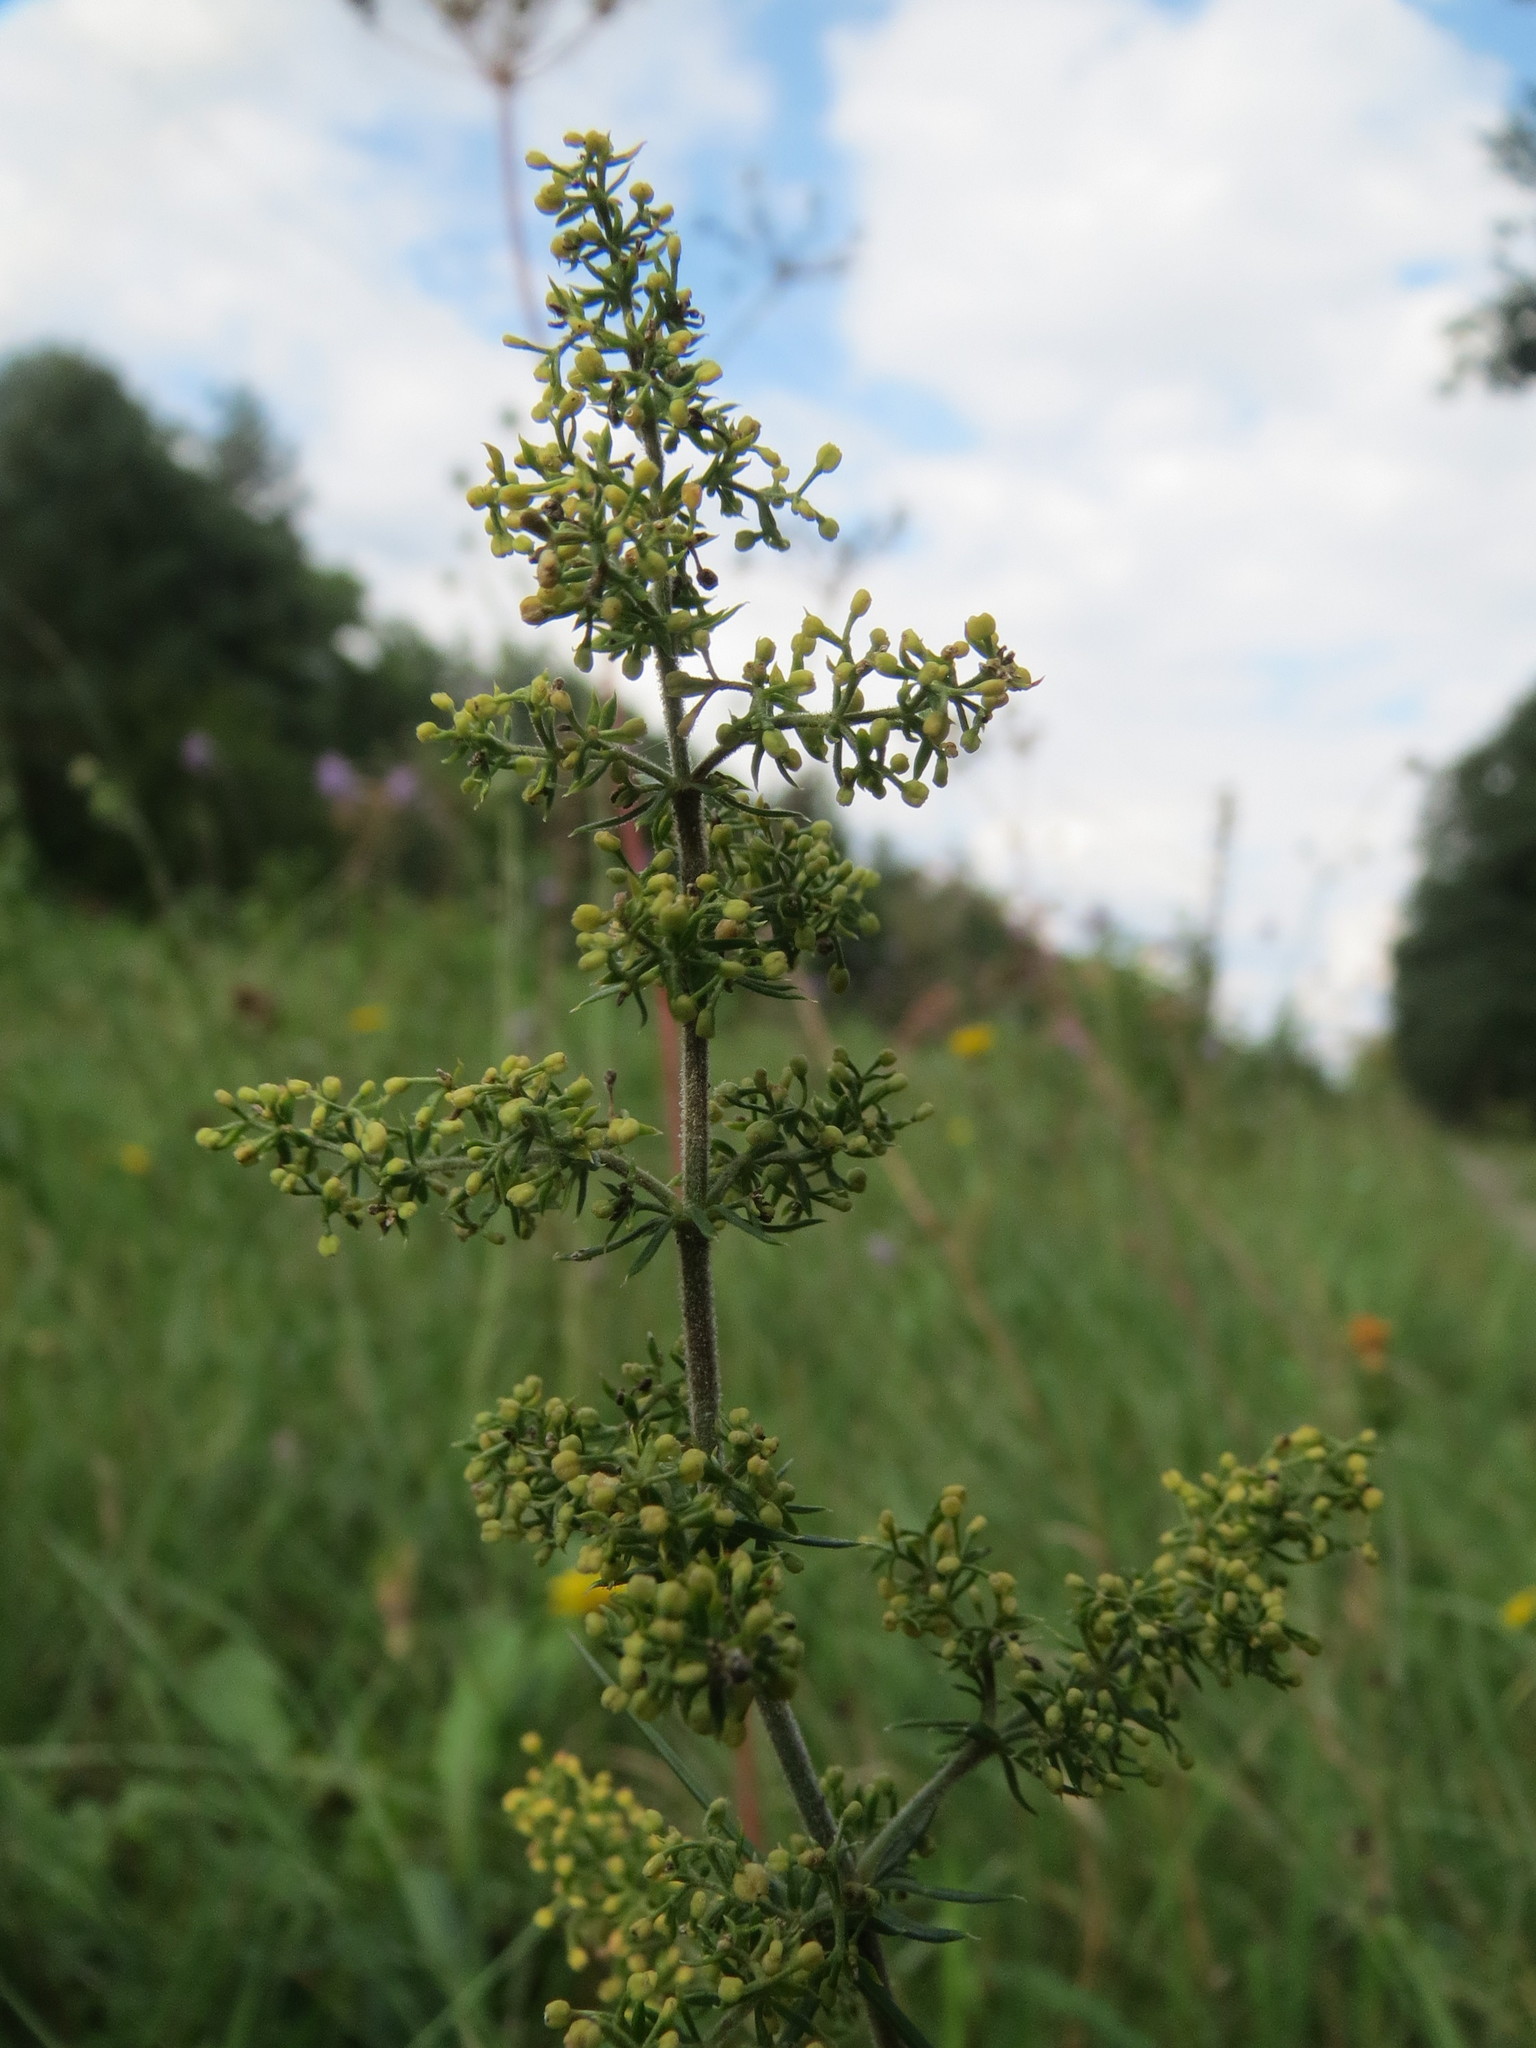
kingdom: Plantae
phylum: Tracheophyta
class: Magnoliopsida
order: Gentianales
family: Rubiaceae
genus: Galium
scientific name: Galium verum
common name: Lady's bedstraw
